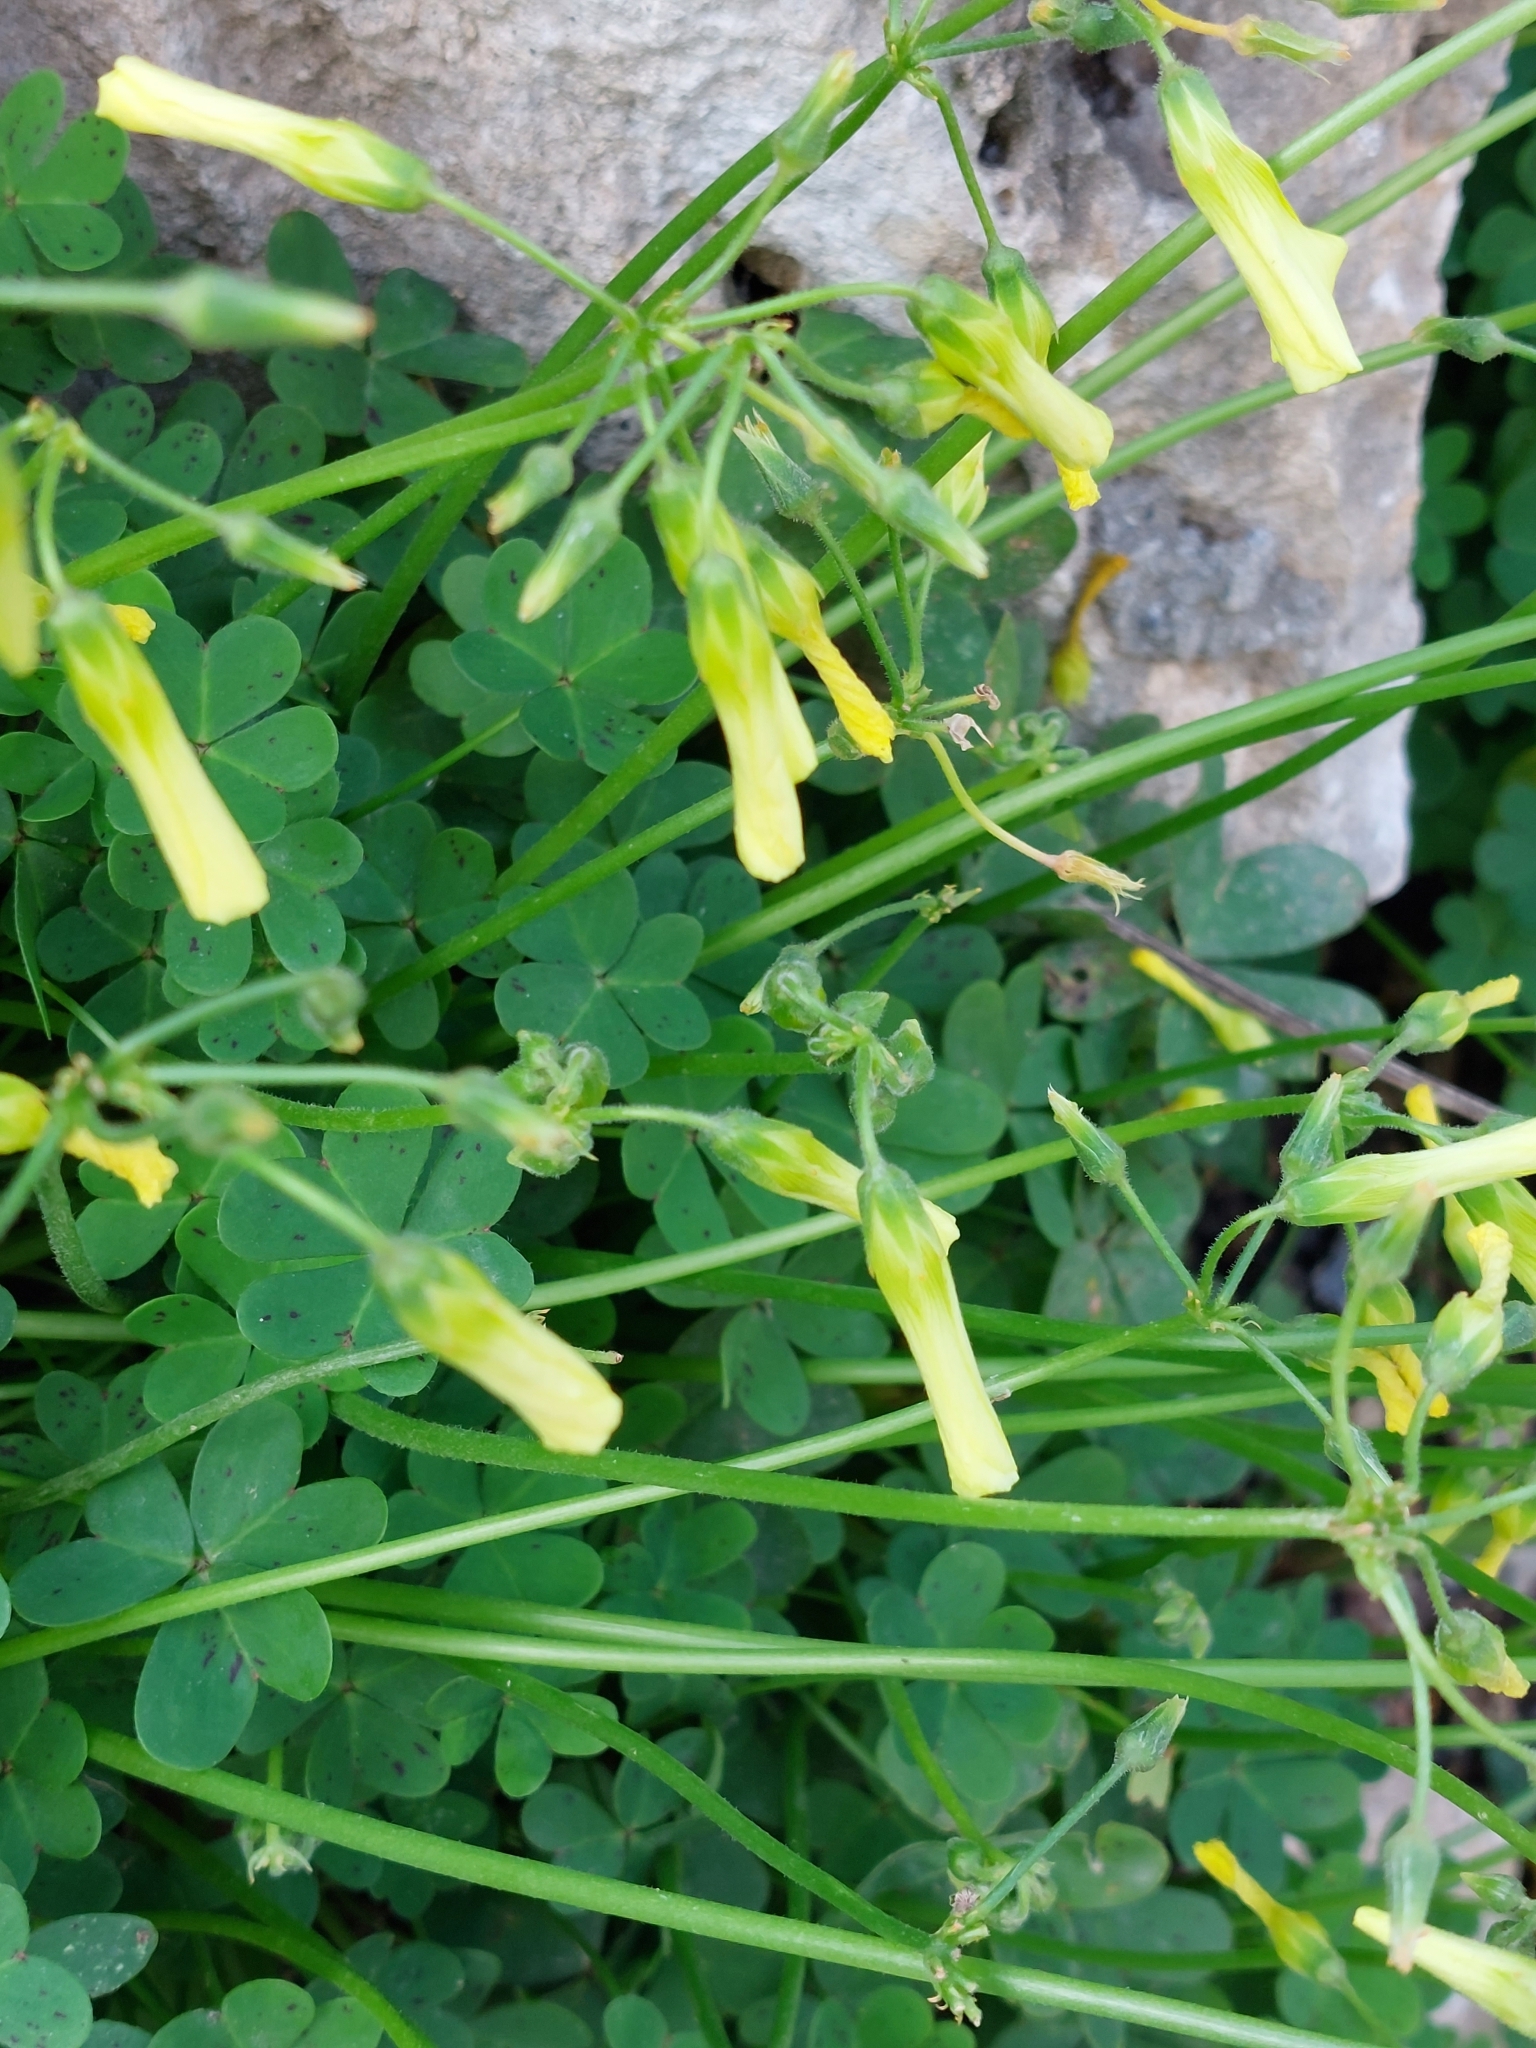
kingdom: Plantae
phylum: Tracheophyta
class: Magnoliopsida
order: Oxalidales
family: Oxalidaceae
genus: Oxalis
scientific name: Oxalis pes-caprae
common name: Bermuda-buttercup
